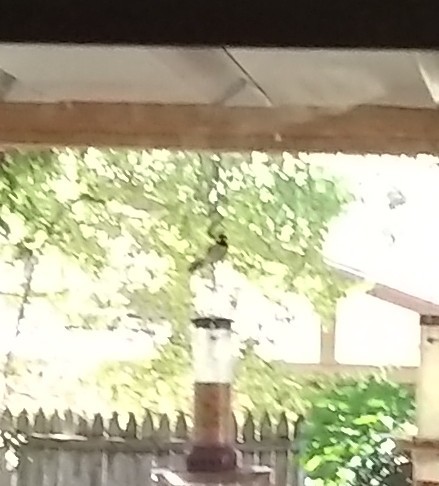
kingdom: Animalia
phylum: Chordata
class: Aves
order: Passeriformes
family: Paridae
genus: Poecile
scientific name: Poecile carolinensis
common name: Carolina chickadee
